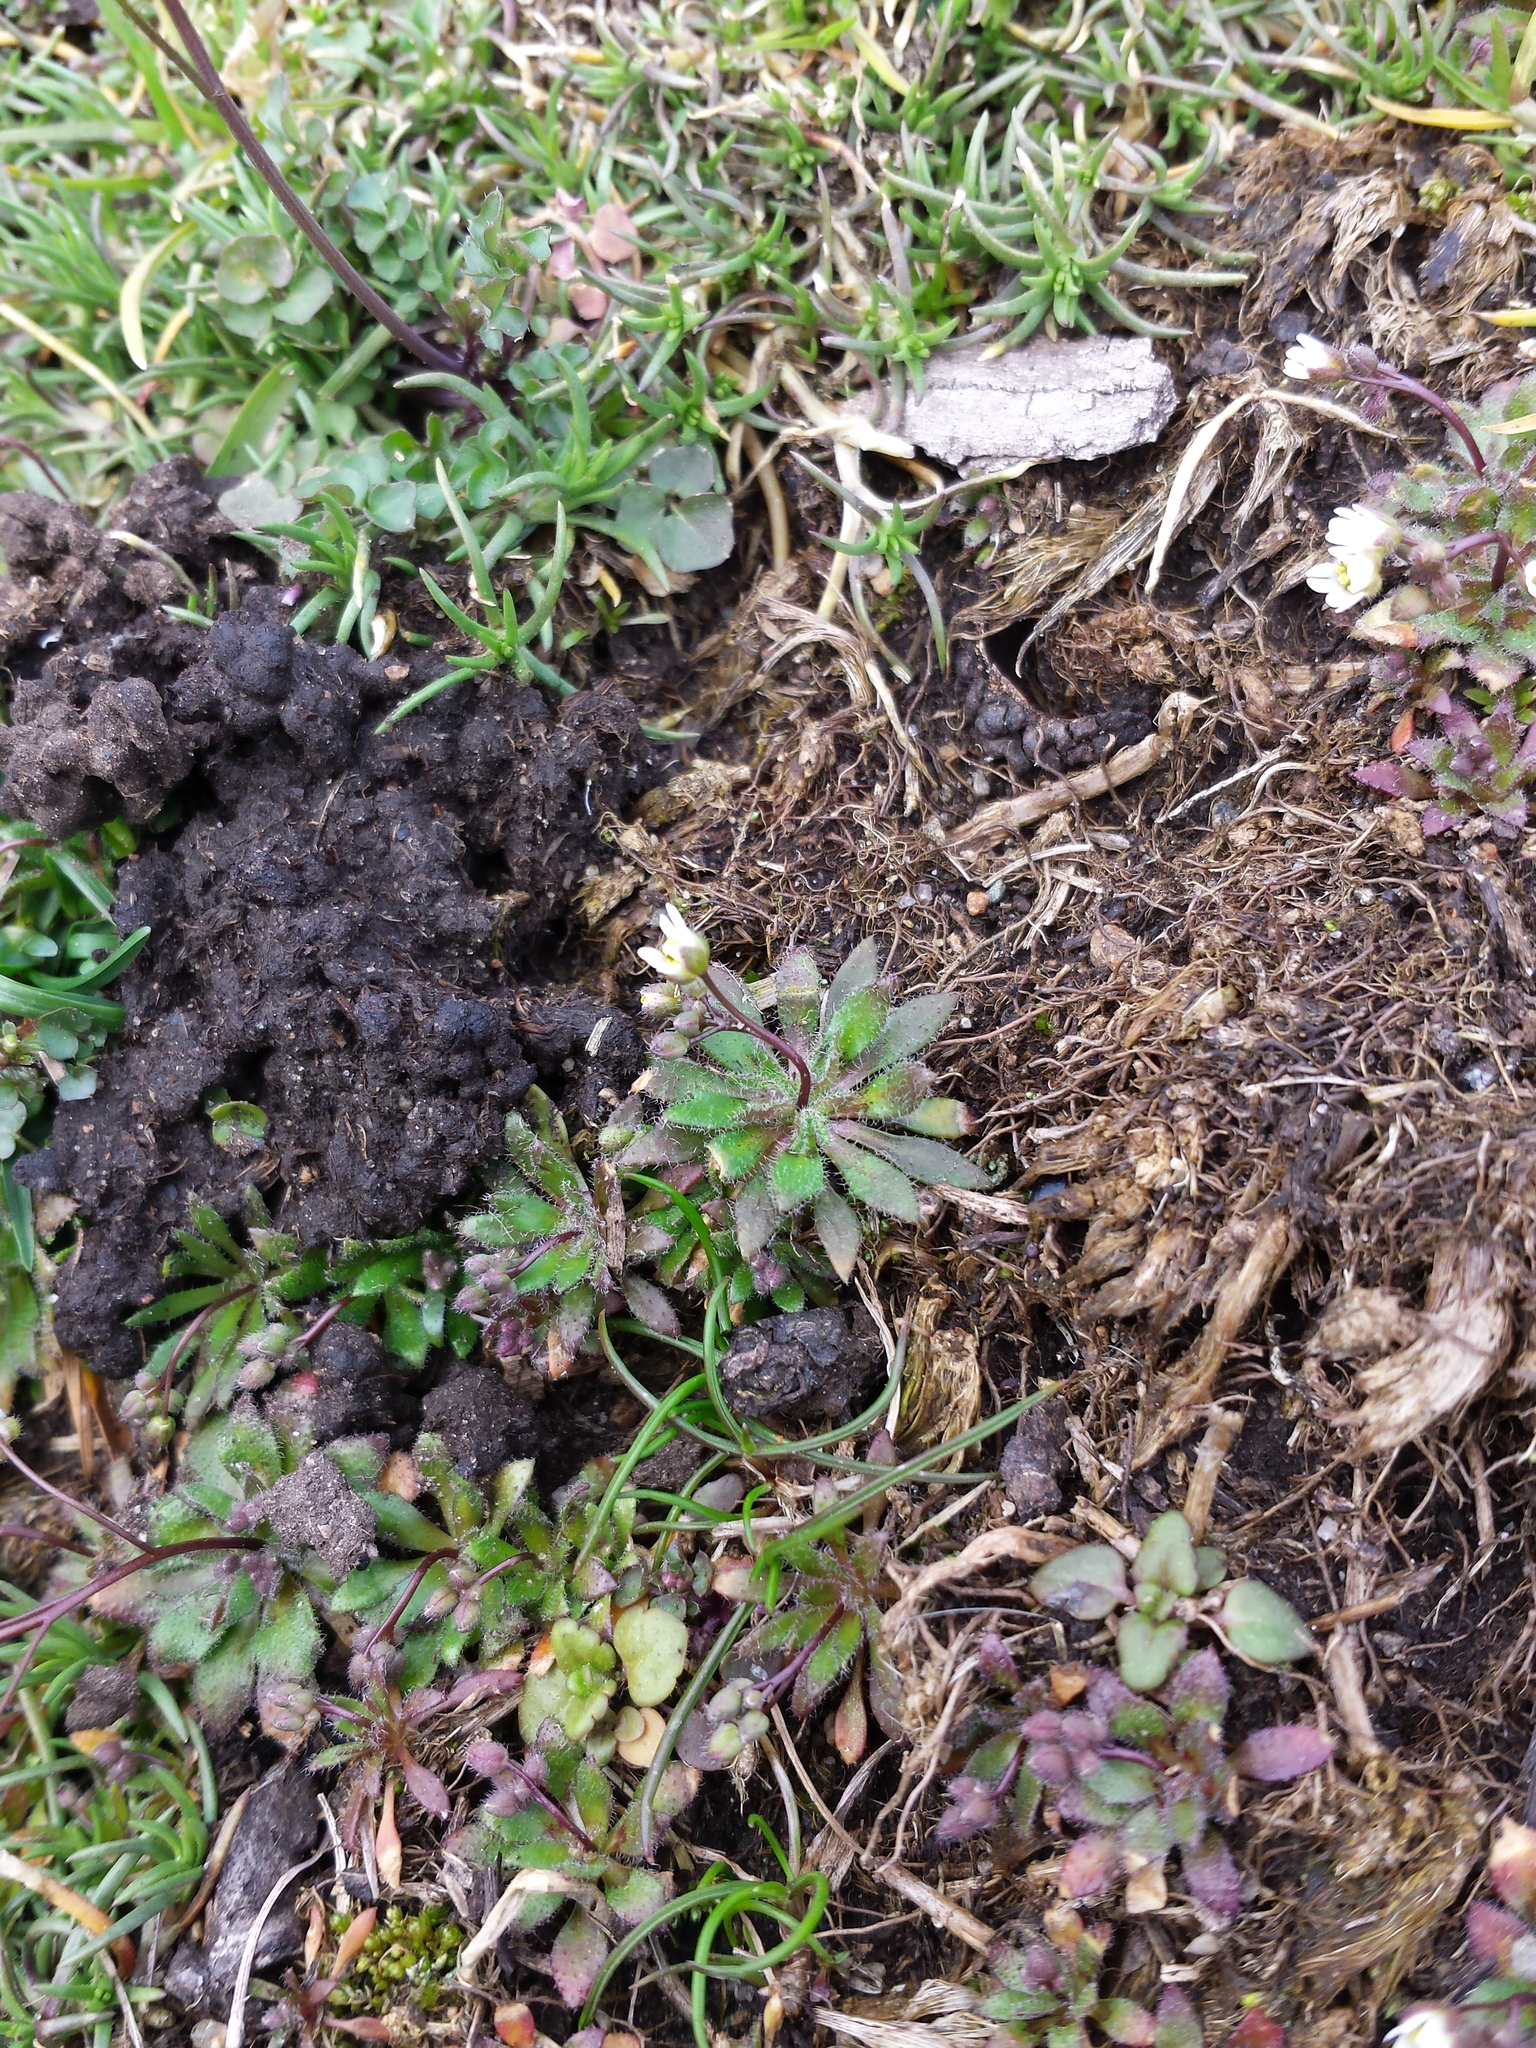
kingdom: Plantae
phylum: Tracheophyta
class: Magnoliopsida
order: Brassicales
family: Brassicaceae
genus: Draba
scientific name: Draba verna
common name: Spring draba
